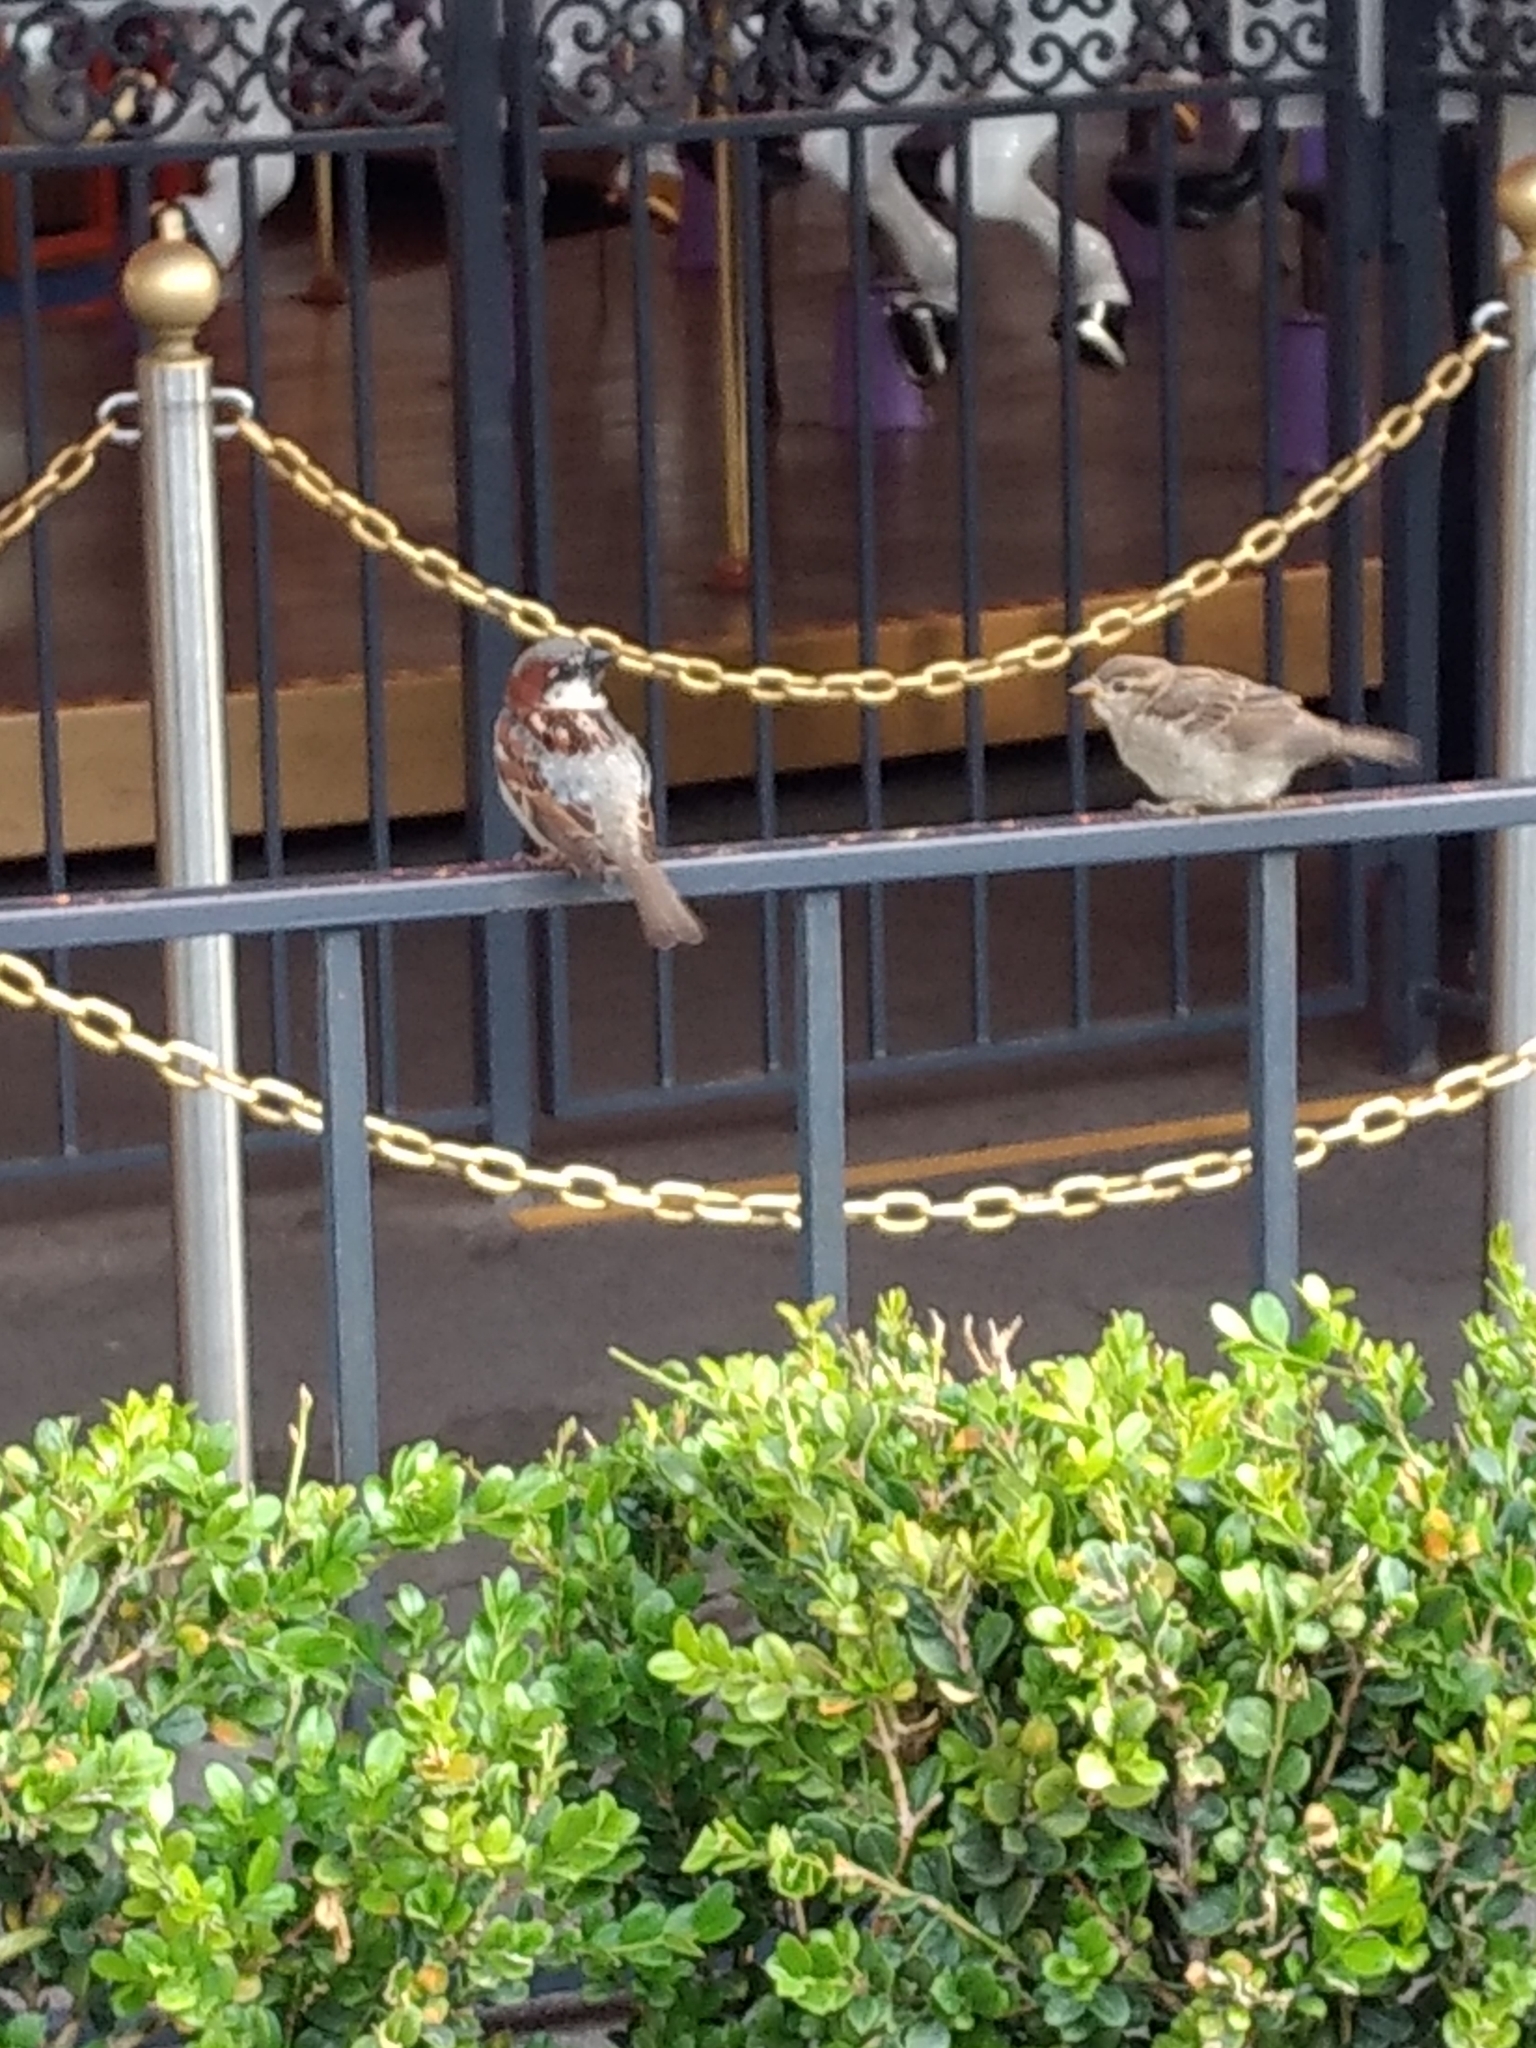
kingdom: Animalia
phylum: Chordata
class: Aves
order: Passeriformes
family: Passeridae
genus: Passer
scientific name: Passer domesticus
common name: House sparrow
